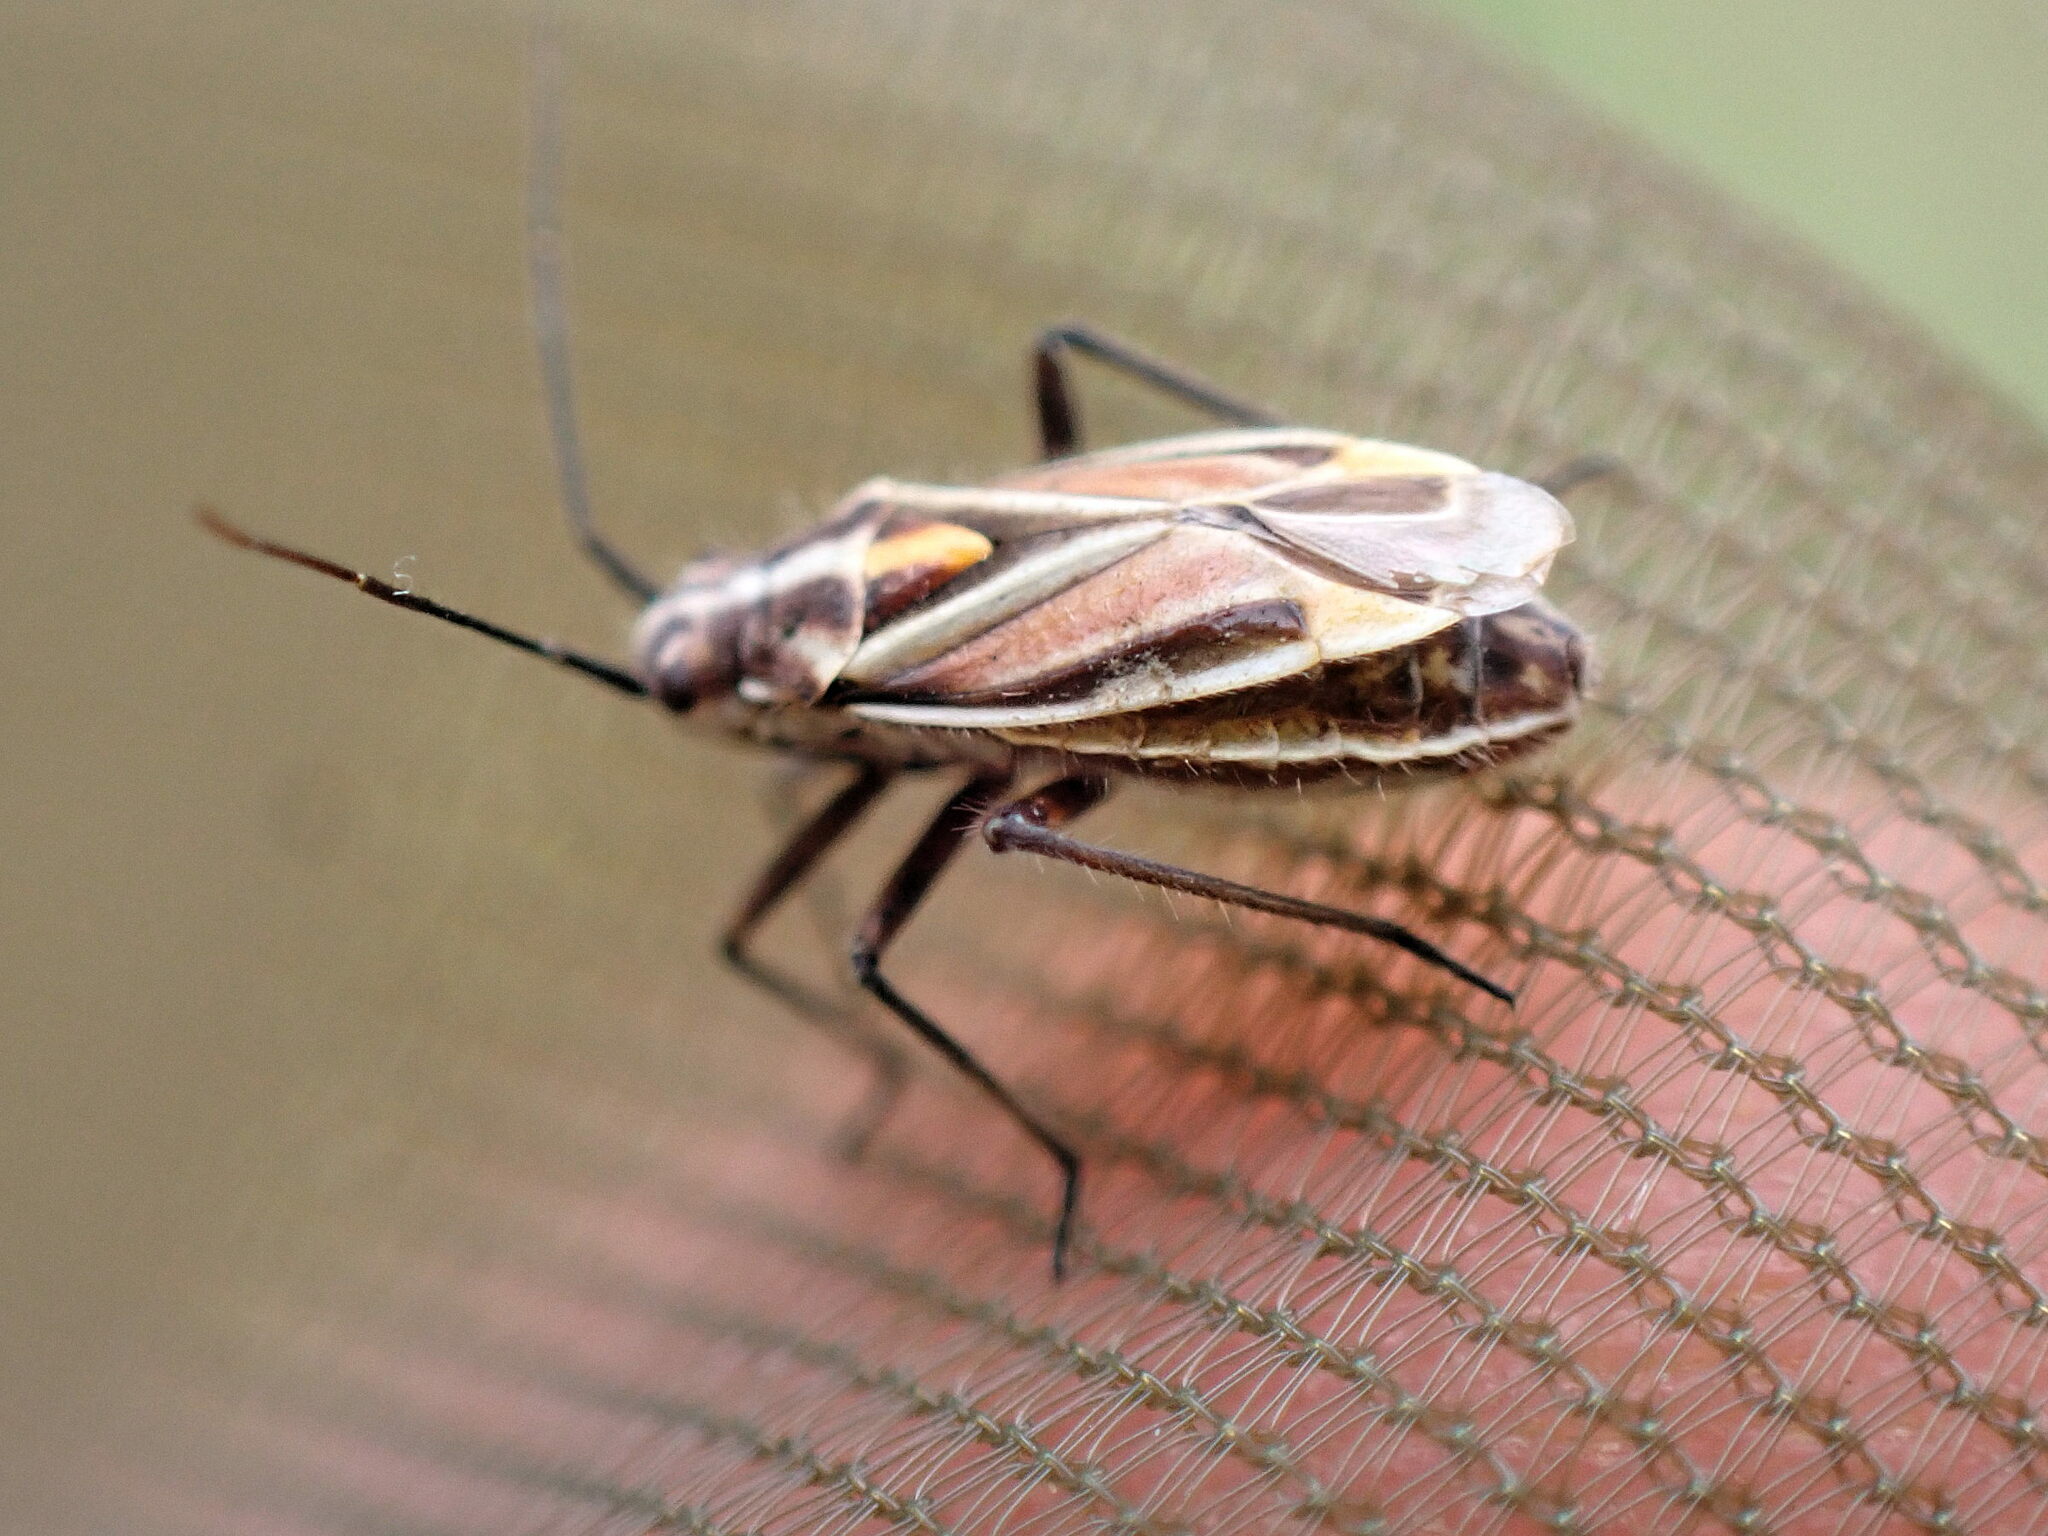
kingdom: Animalia
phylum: Arthropoda
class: Insecta
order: Hemiptera
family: Miridae
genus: Horistus
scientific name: Horistus orientalis
